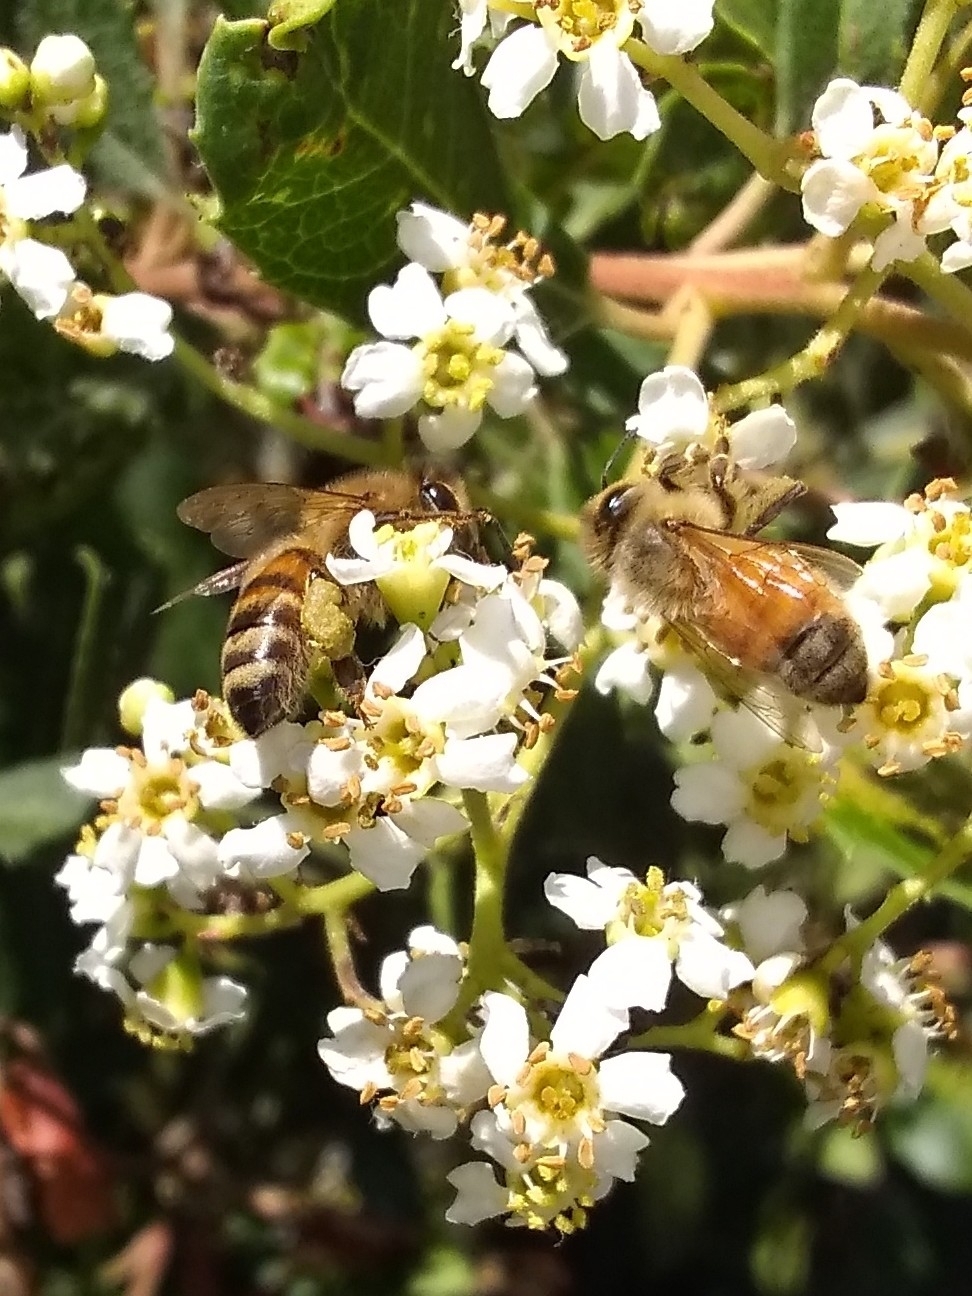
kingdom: Animalia
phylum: Arthropoda
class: Insecta
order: Hymenoptera
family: Apidae
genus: Apis
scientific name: Apis mellifera
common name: Honey bee
